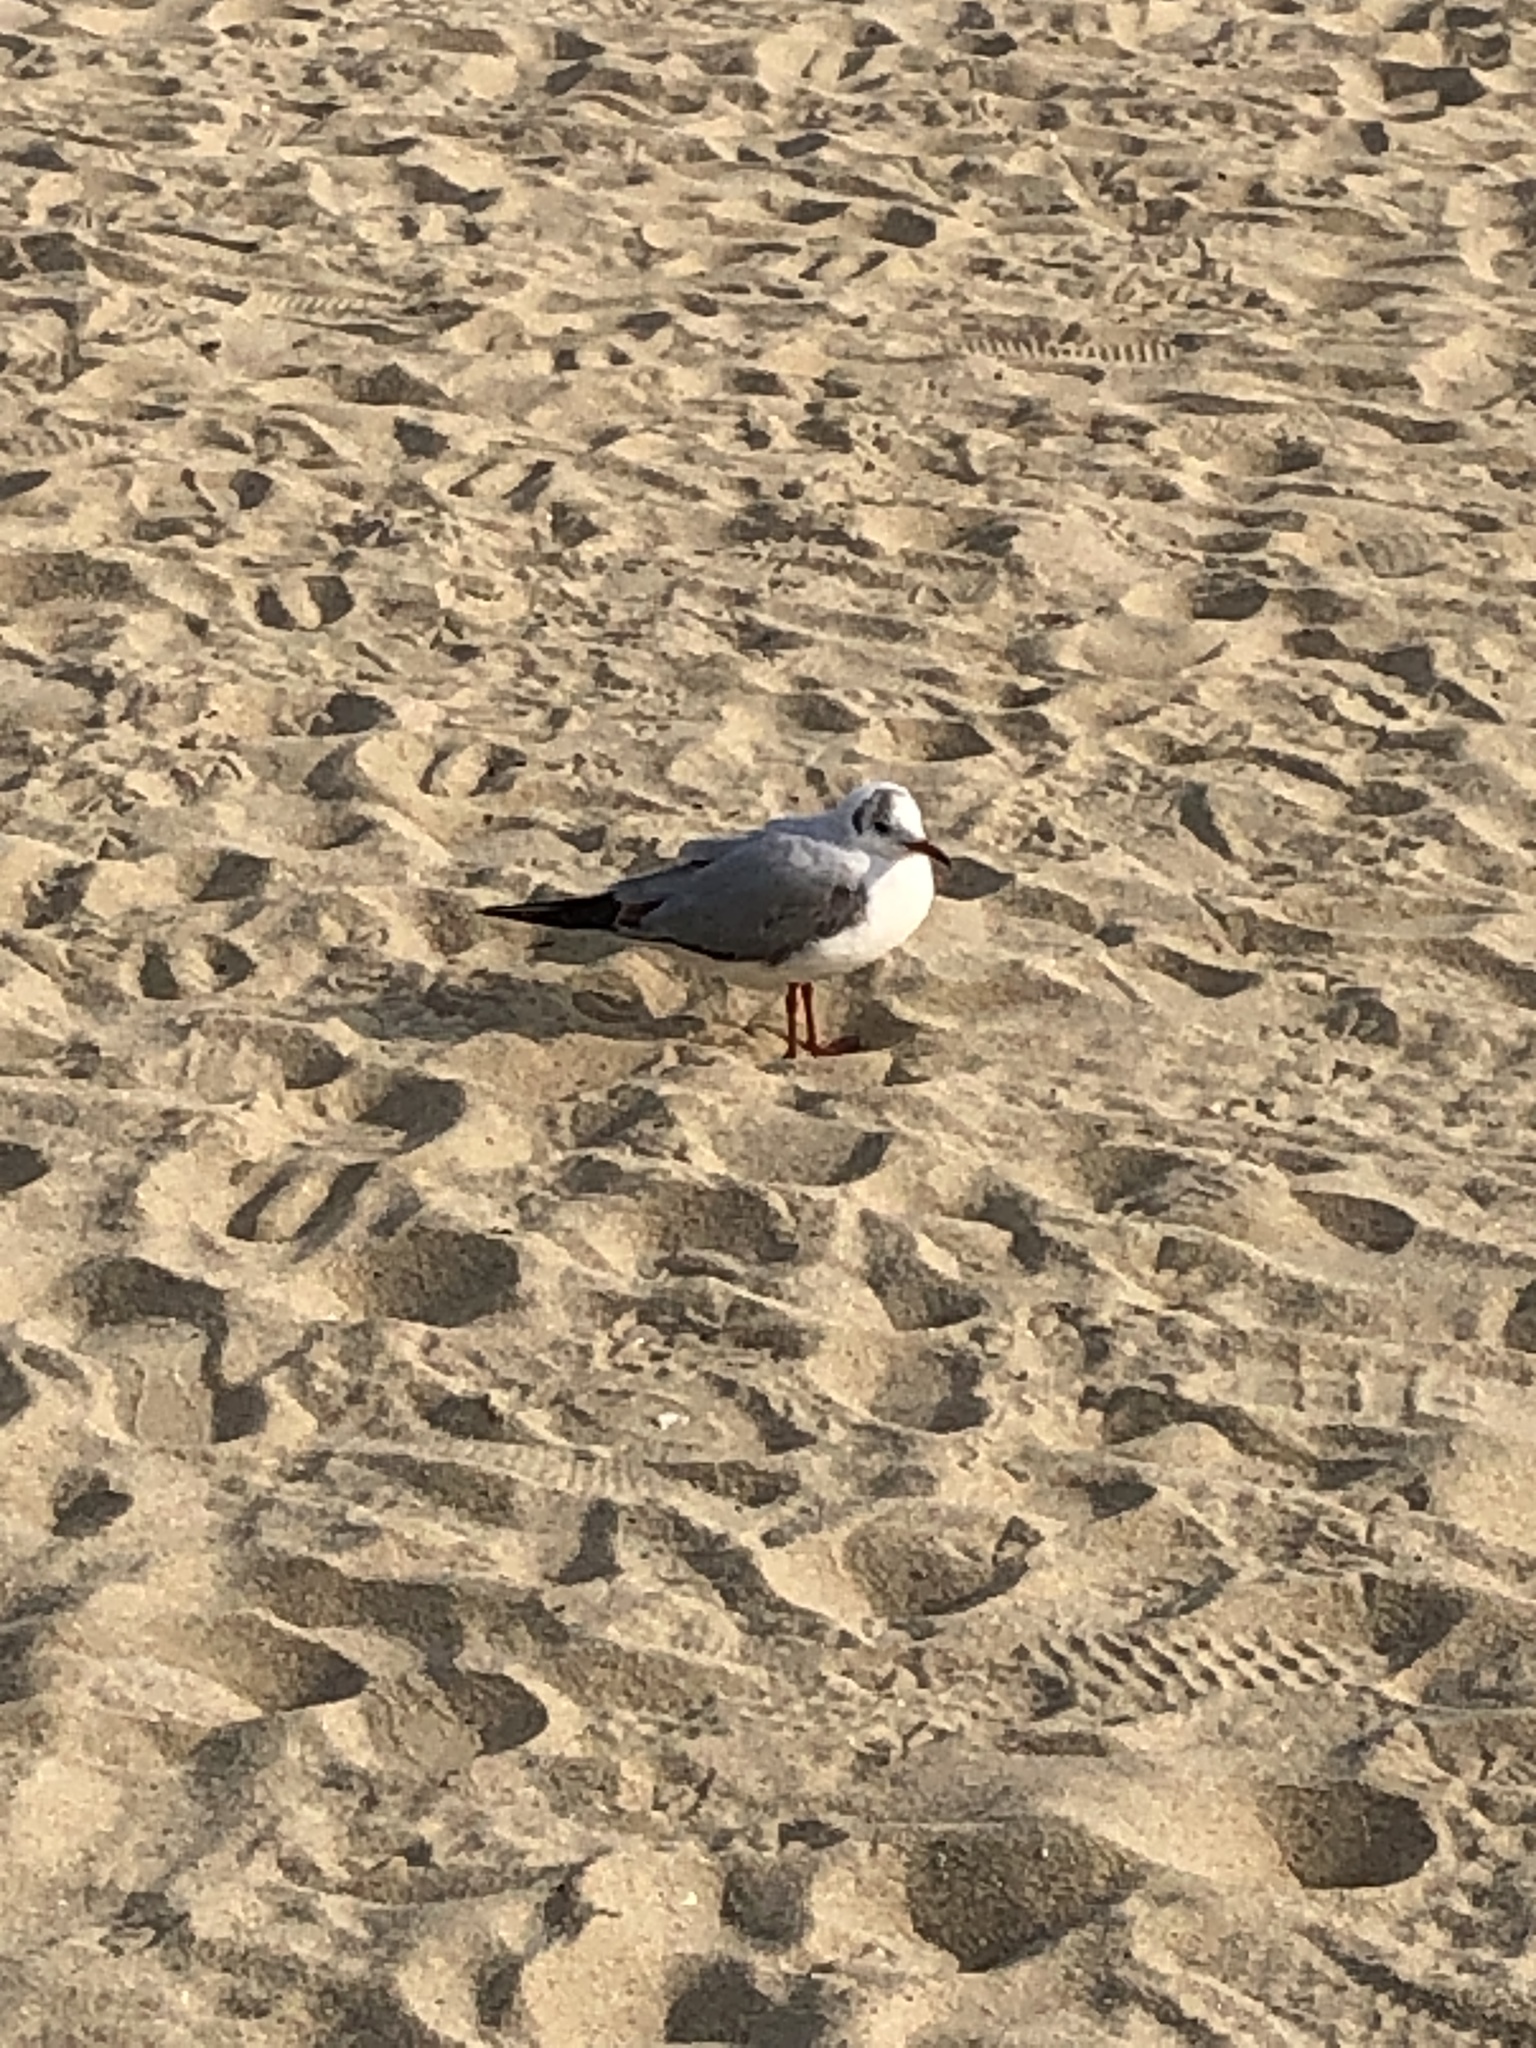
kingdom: Animalia
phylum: Chordata
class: Aves
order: Charadriiformes
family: Laridae
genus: Chroicocephalus
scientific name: Chroicocephalus ridibundus
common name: Black-headed gull
